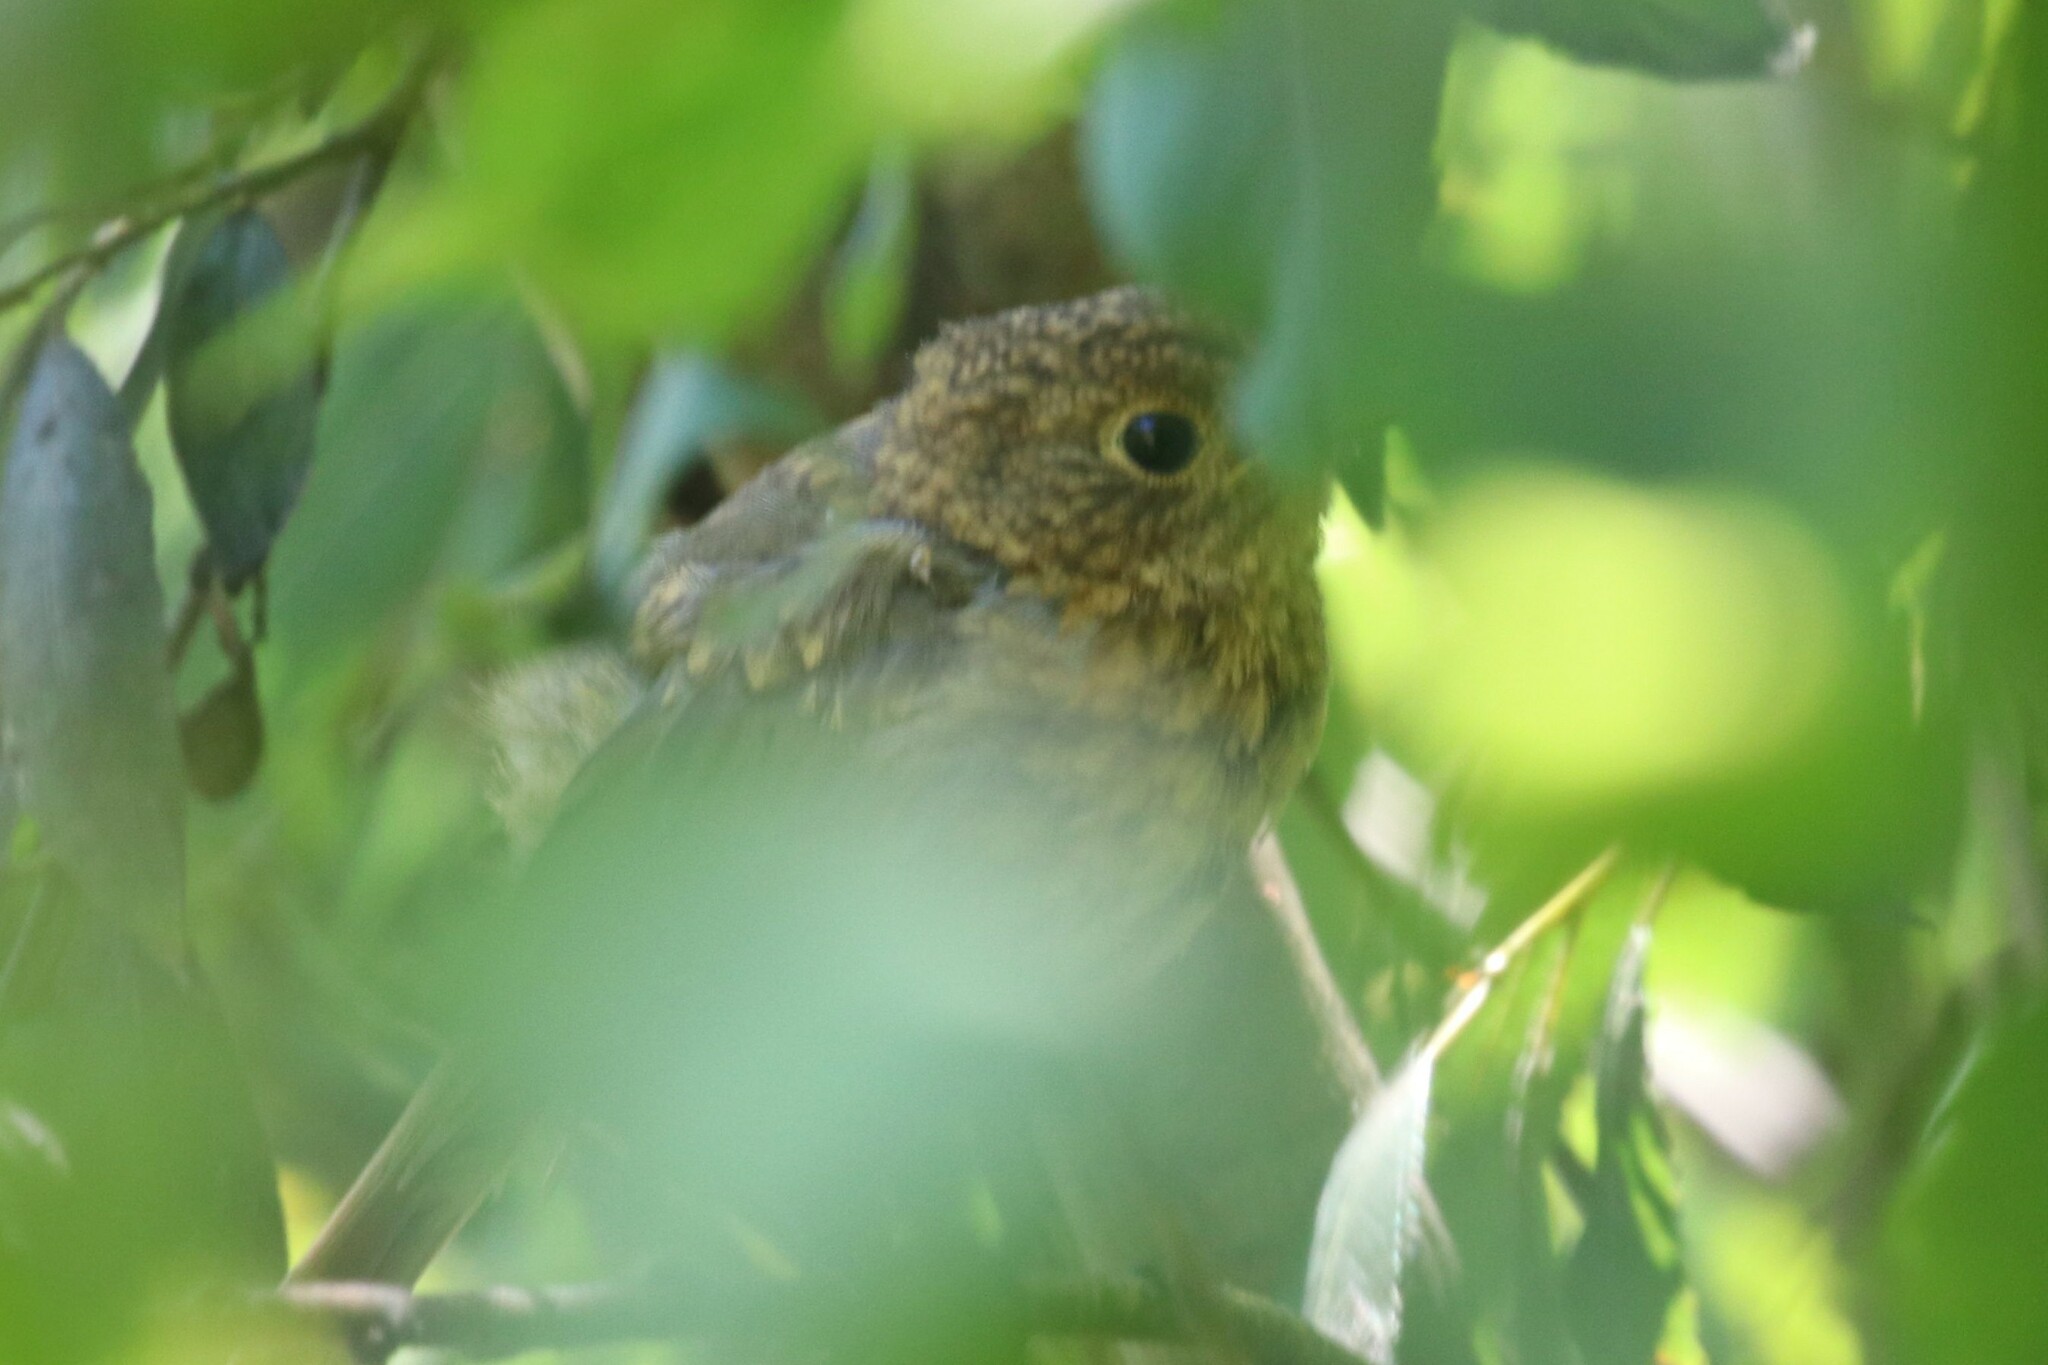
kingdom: Animalia
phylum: Chordata
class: Aves
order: Passeriformes
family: Muscicapidae
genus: Erithacus
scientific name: Erithacus rubecula
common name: European robin
